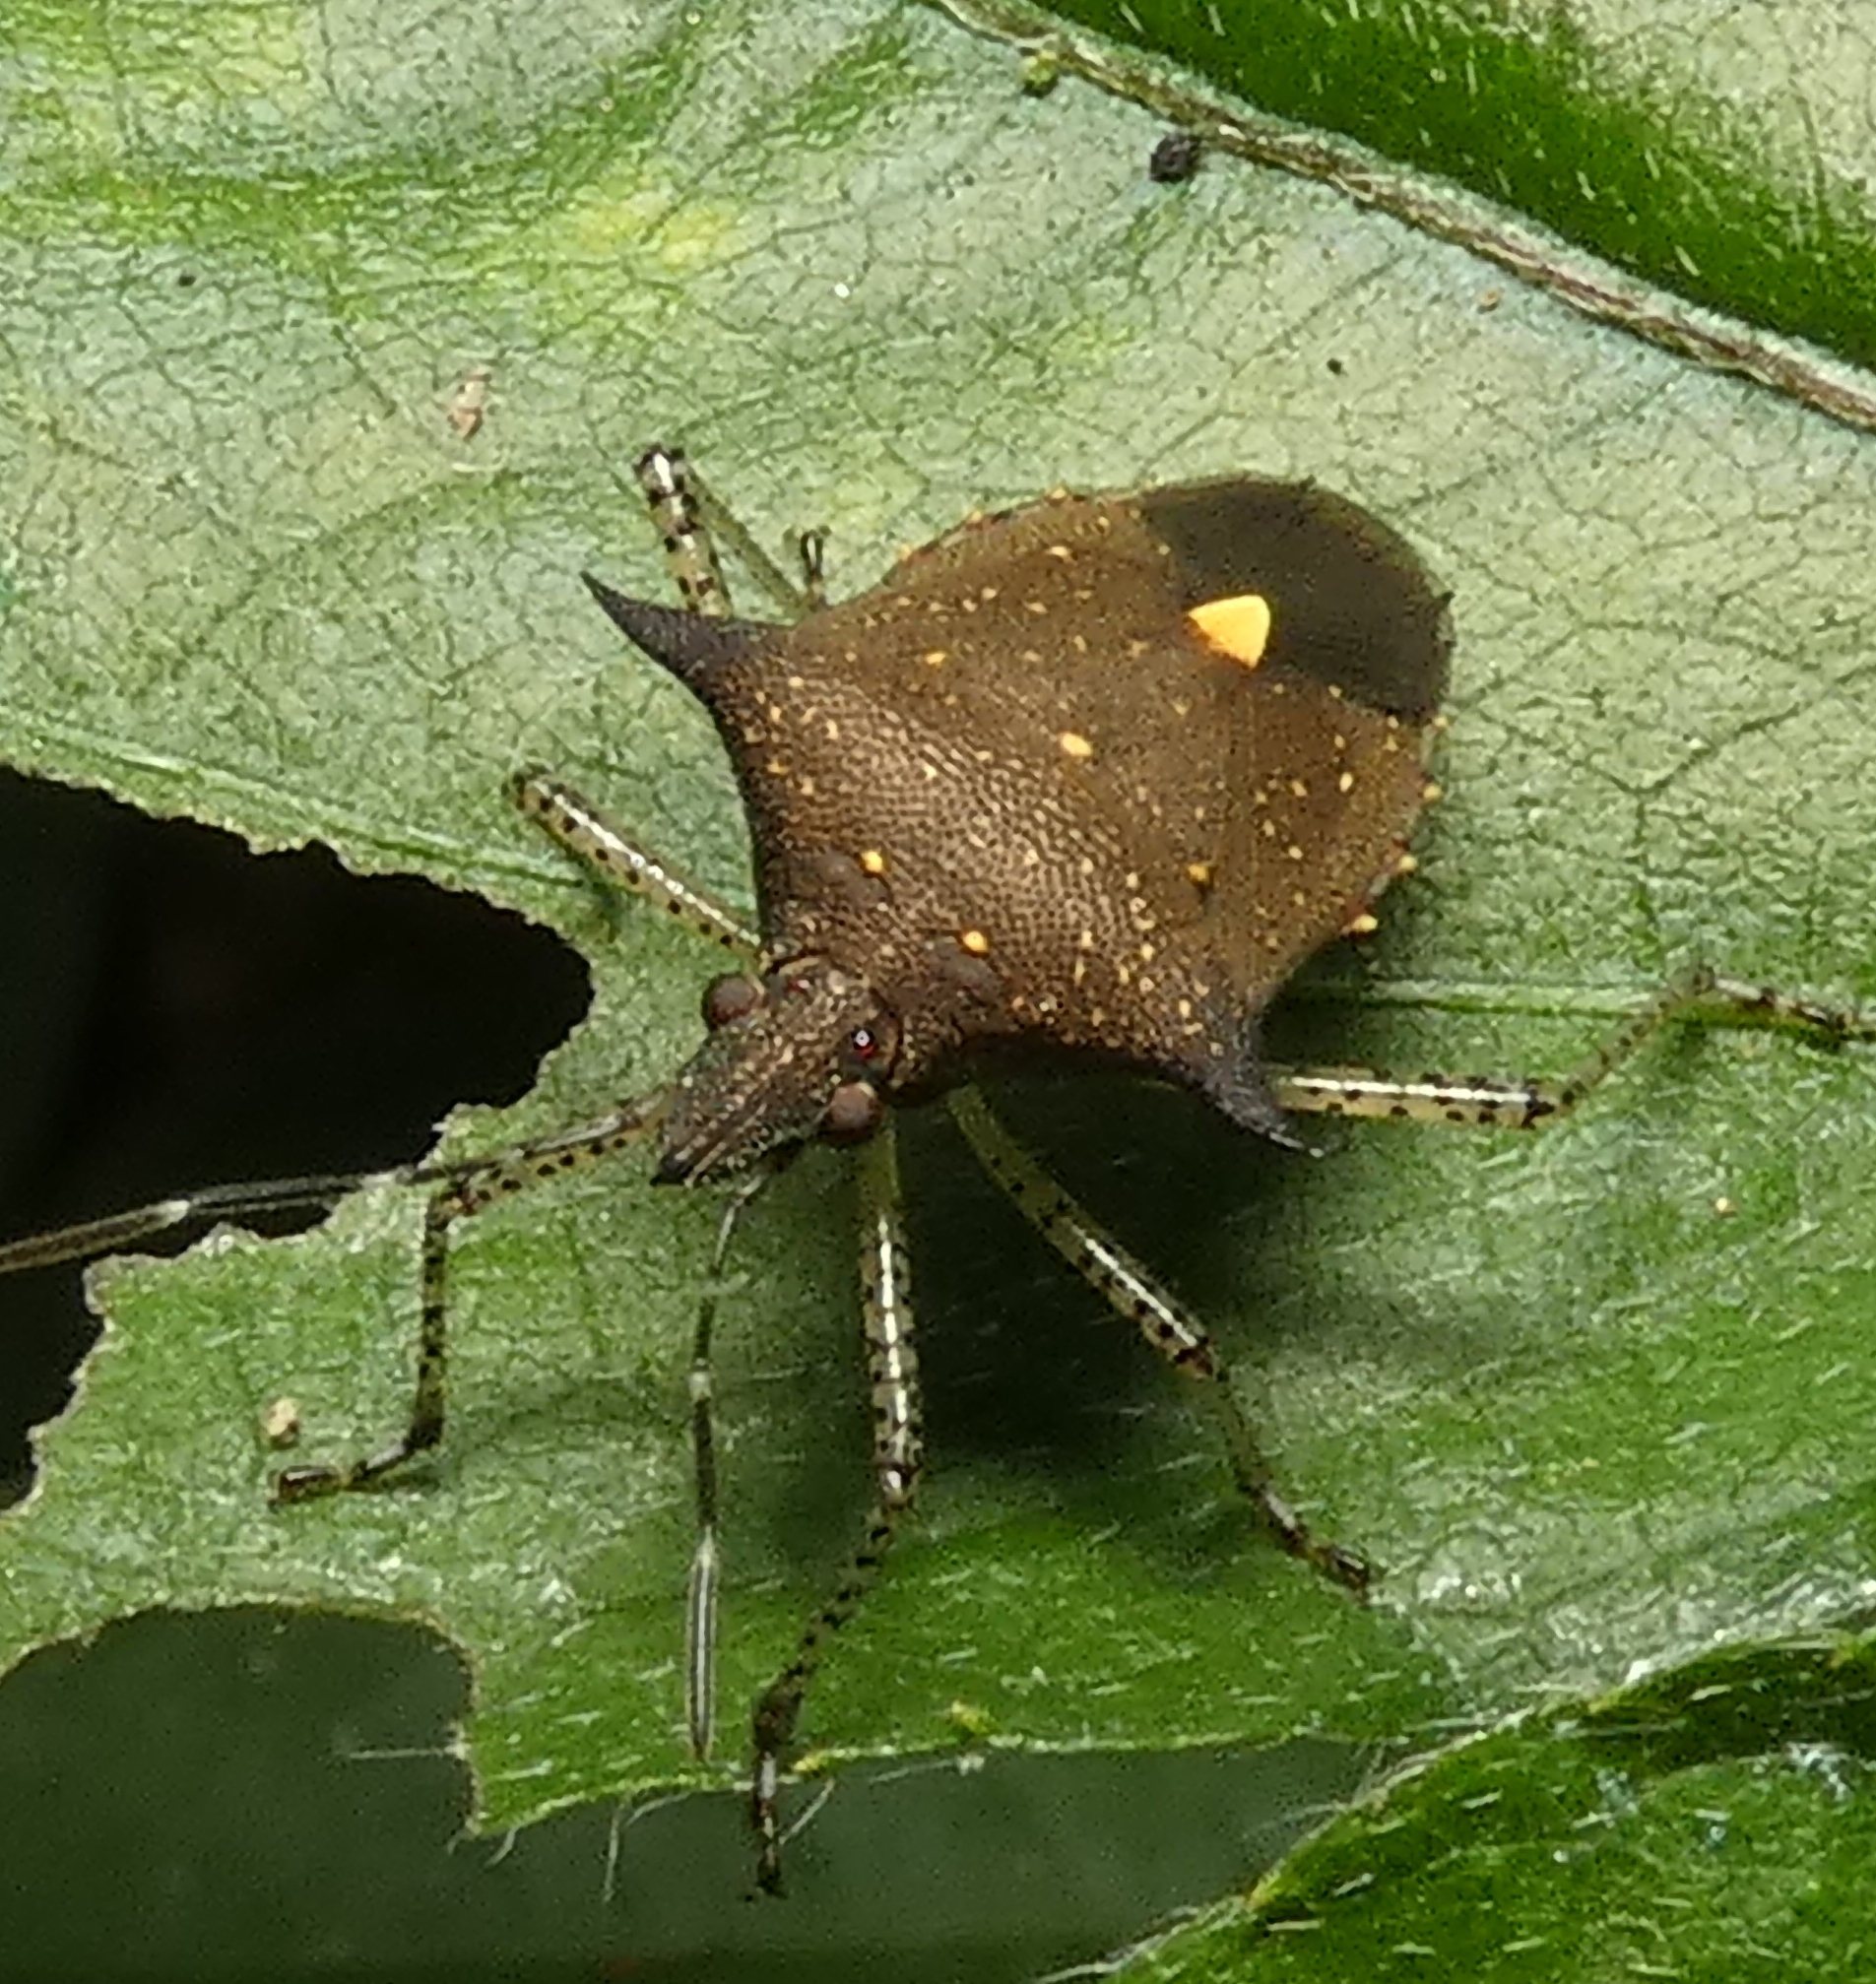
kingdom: Animalia
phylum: Arthropoda
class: Insecta
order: Hemiptera
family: Pentatomidae
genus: Proxys
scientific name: Proxys albopunctulatus
